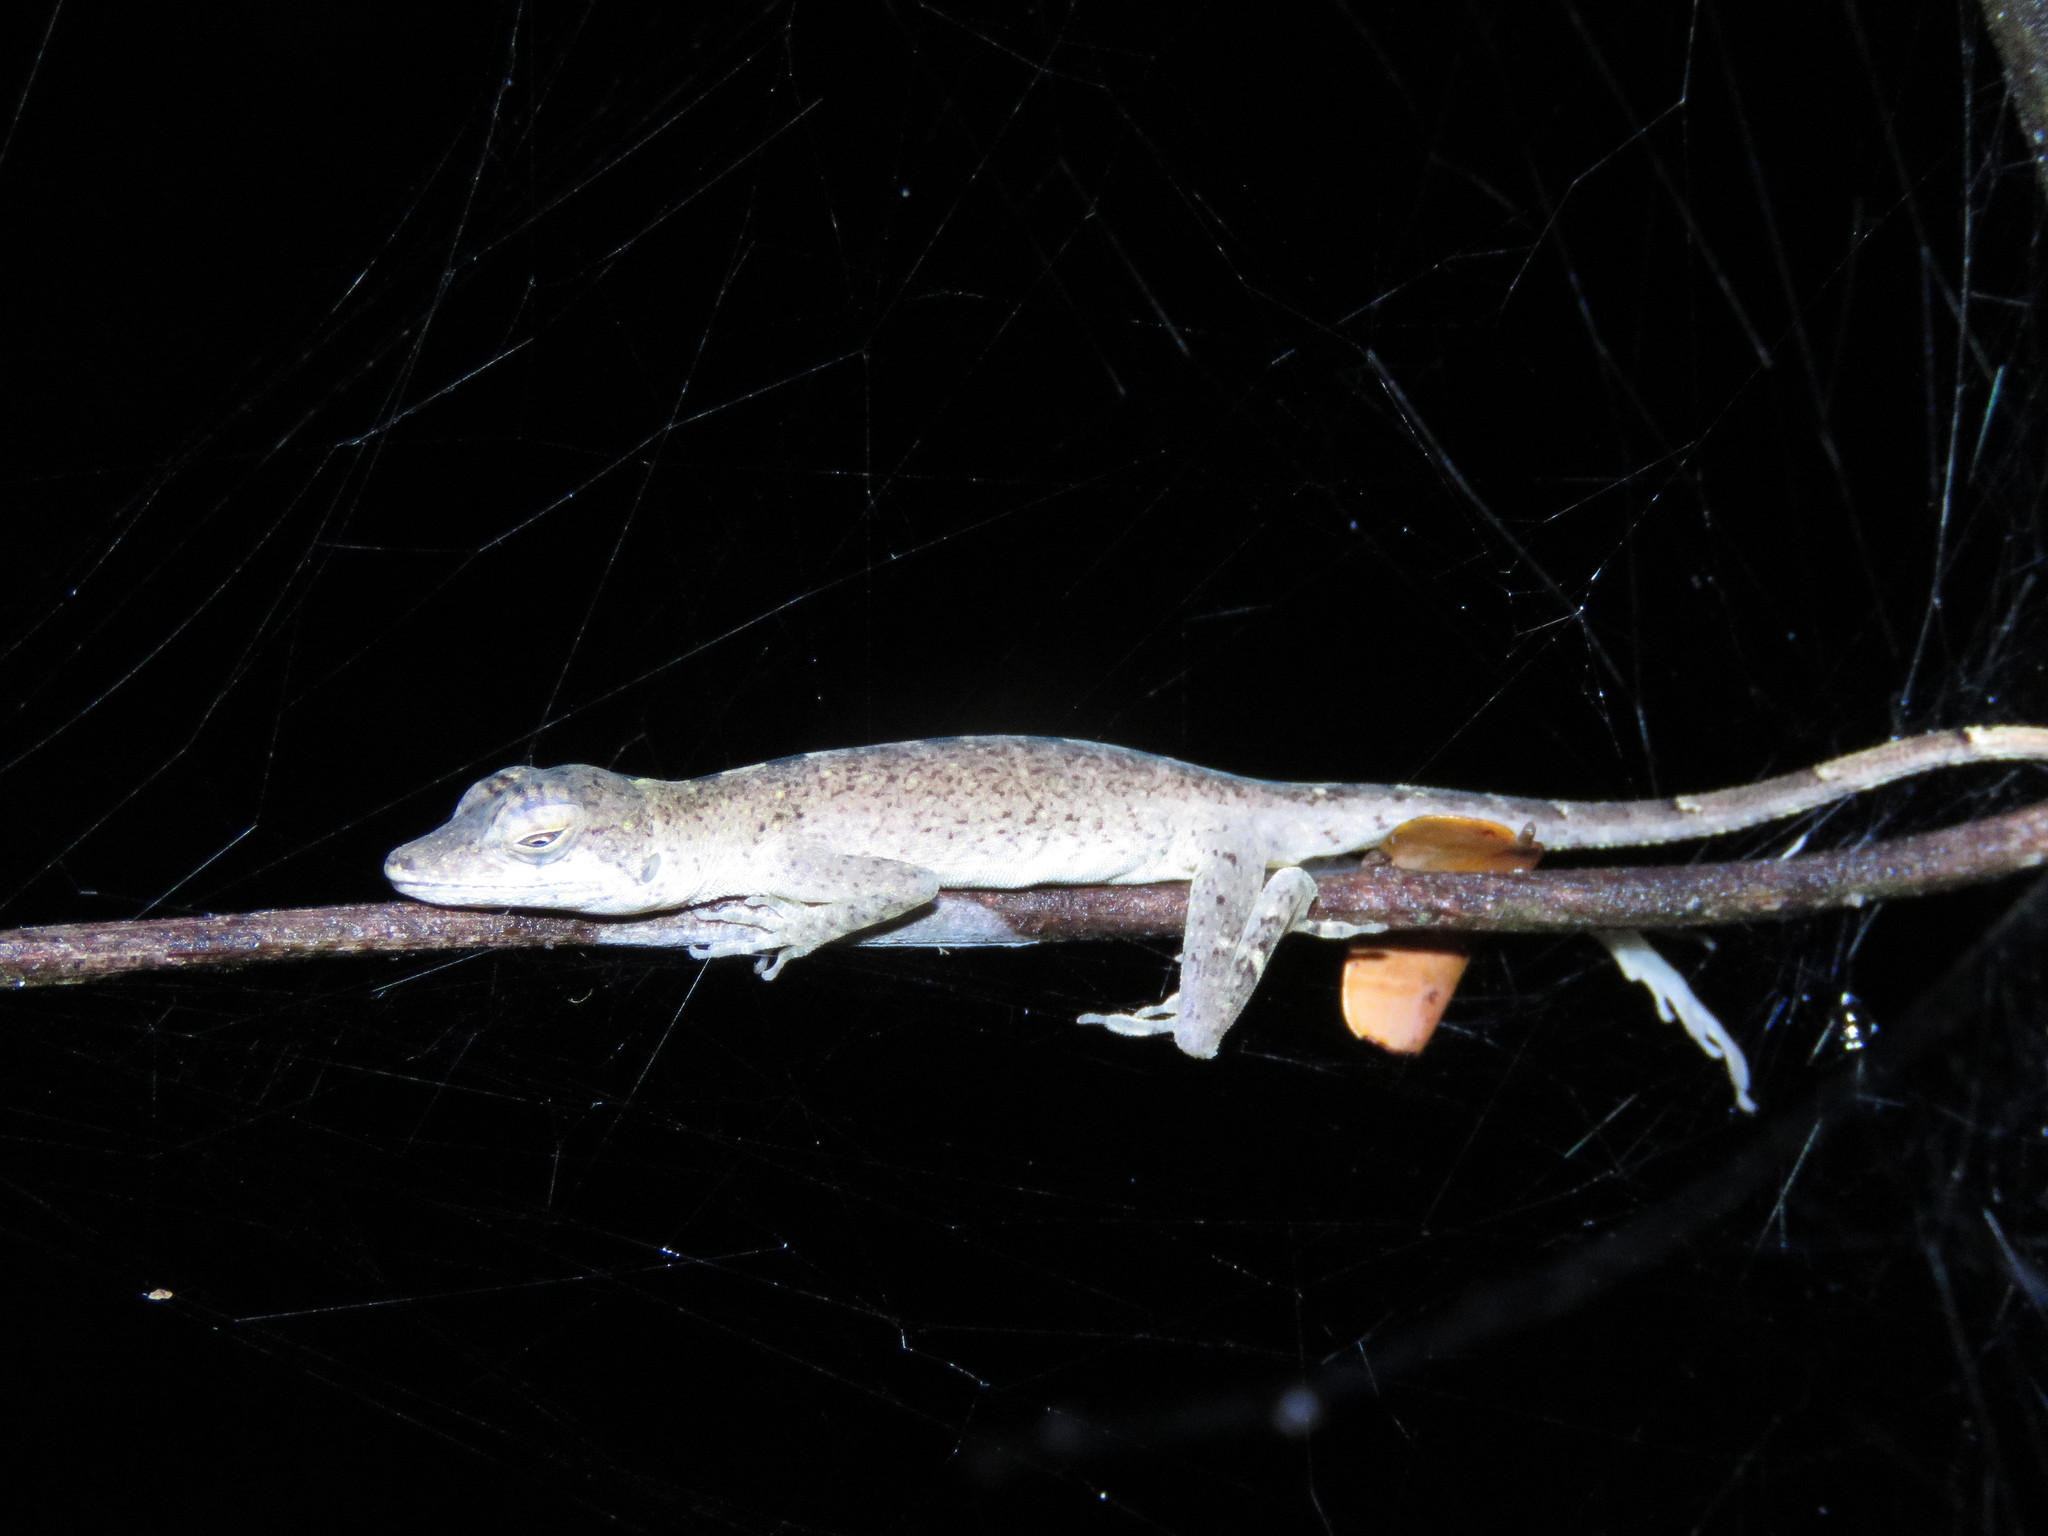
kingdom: Animalia
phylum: Chordata
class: Squamata
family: Dactyloidae
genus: Anolis
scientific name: Anolis fuscoauratus
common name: Brown-eared anole
